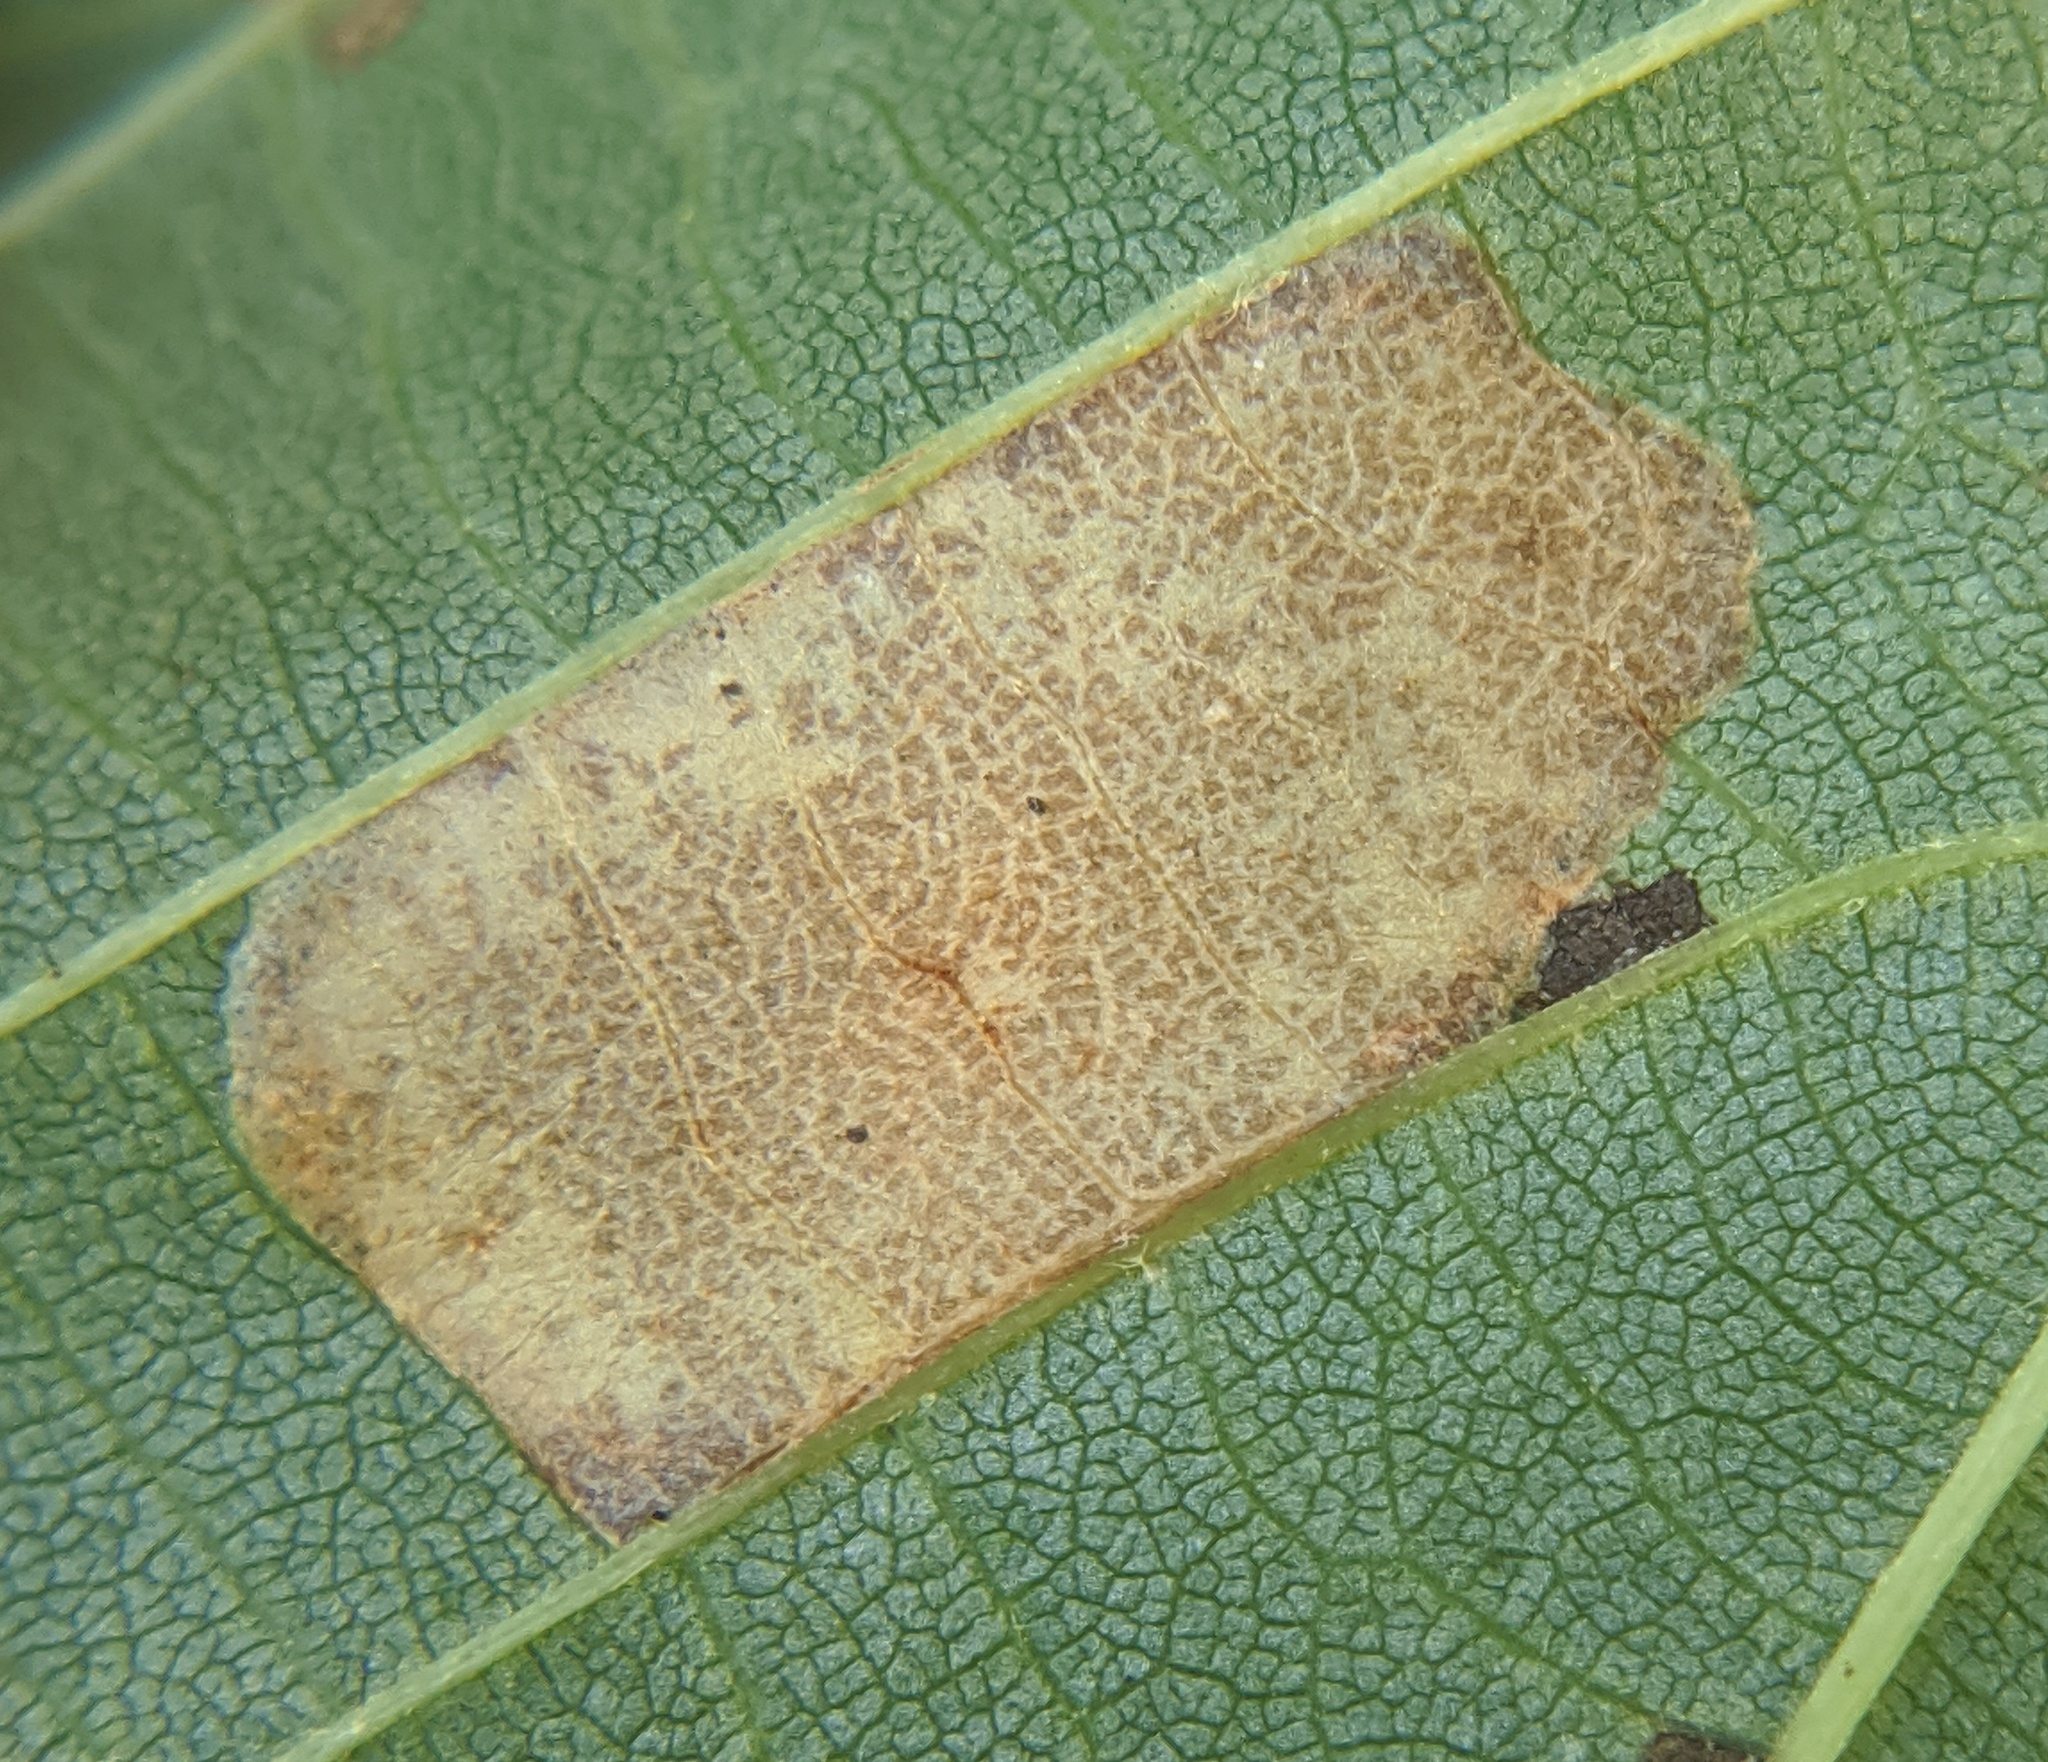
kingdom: Animalia
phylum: Arthropoda
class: Insecta
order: Lepidoptera
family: Gracillariidae
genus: Phyllonorycter
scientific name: Phyllonorycter lucetiella
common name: Basswood miner moth
